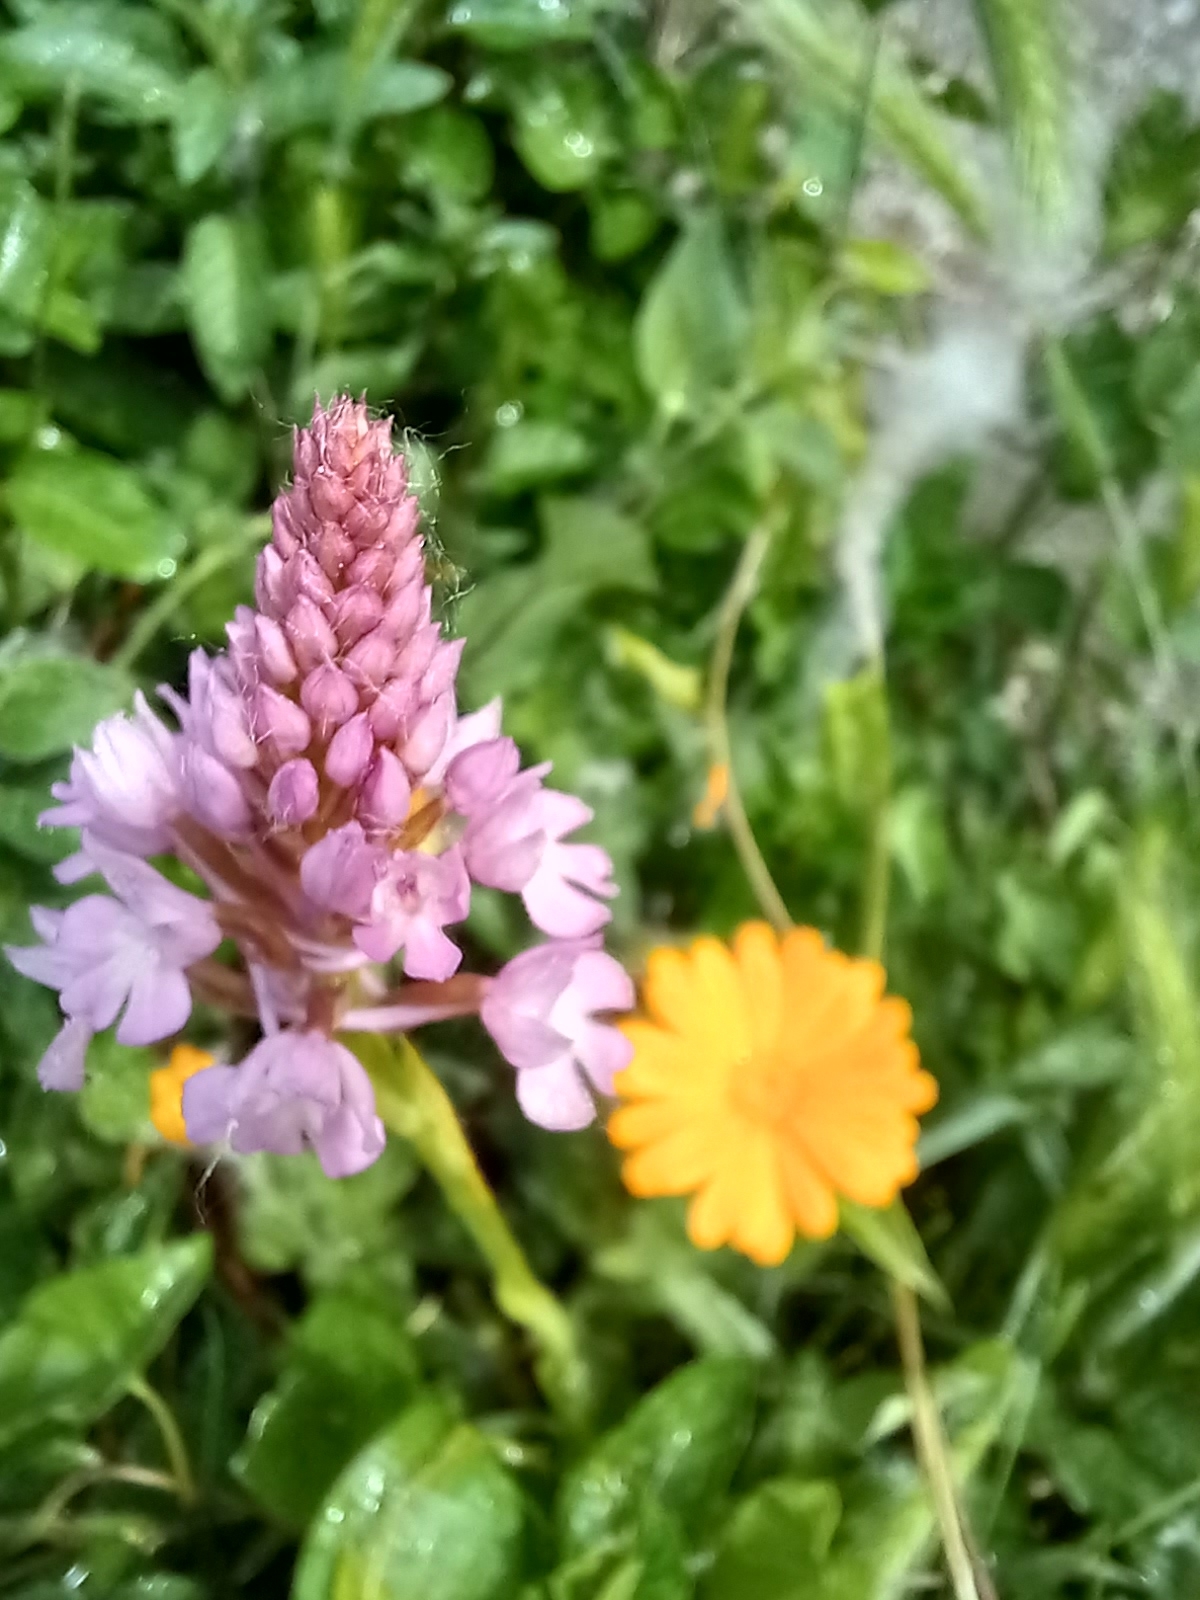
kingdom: Plantae
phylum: Tracheophyta
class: Liliopsida
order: Asparagales
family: Orchidaceae
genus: Anacamptis
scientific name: Anacamptis pyramidalis
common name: Pyramidal orchid
